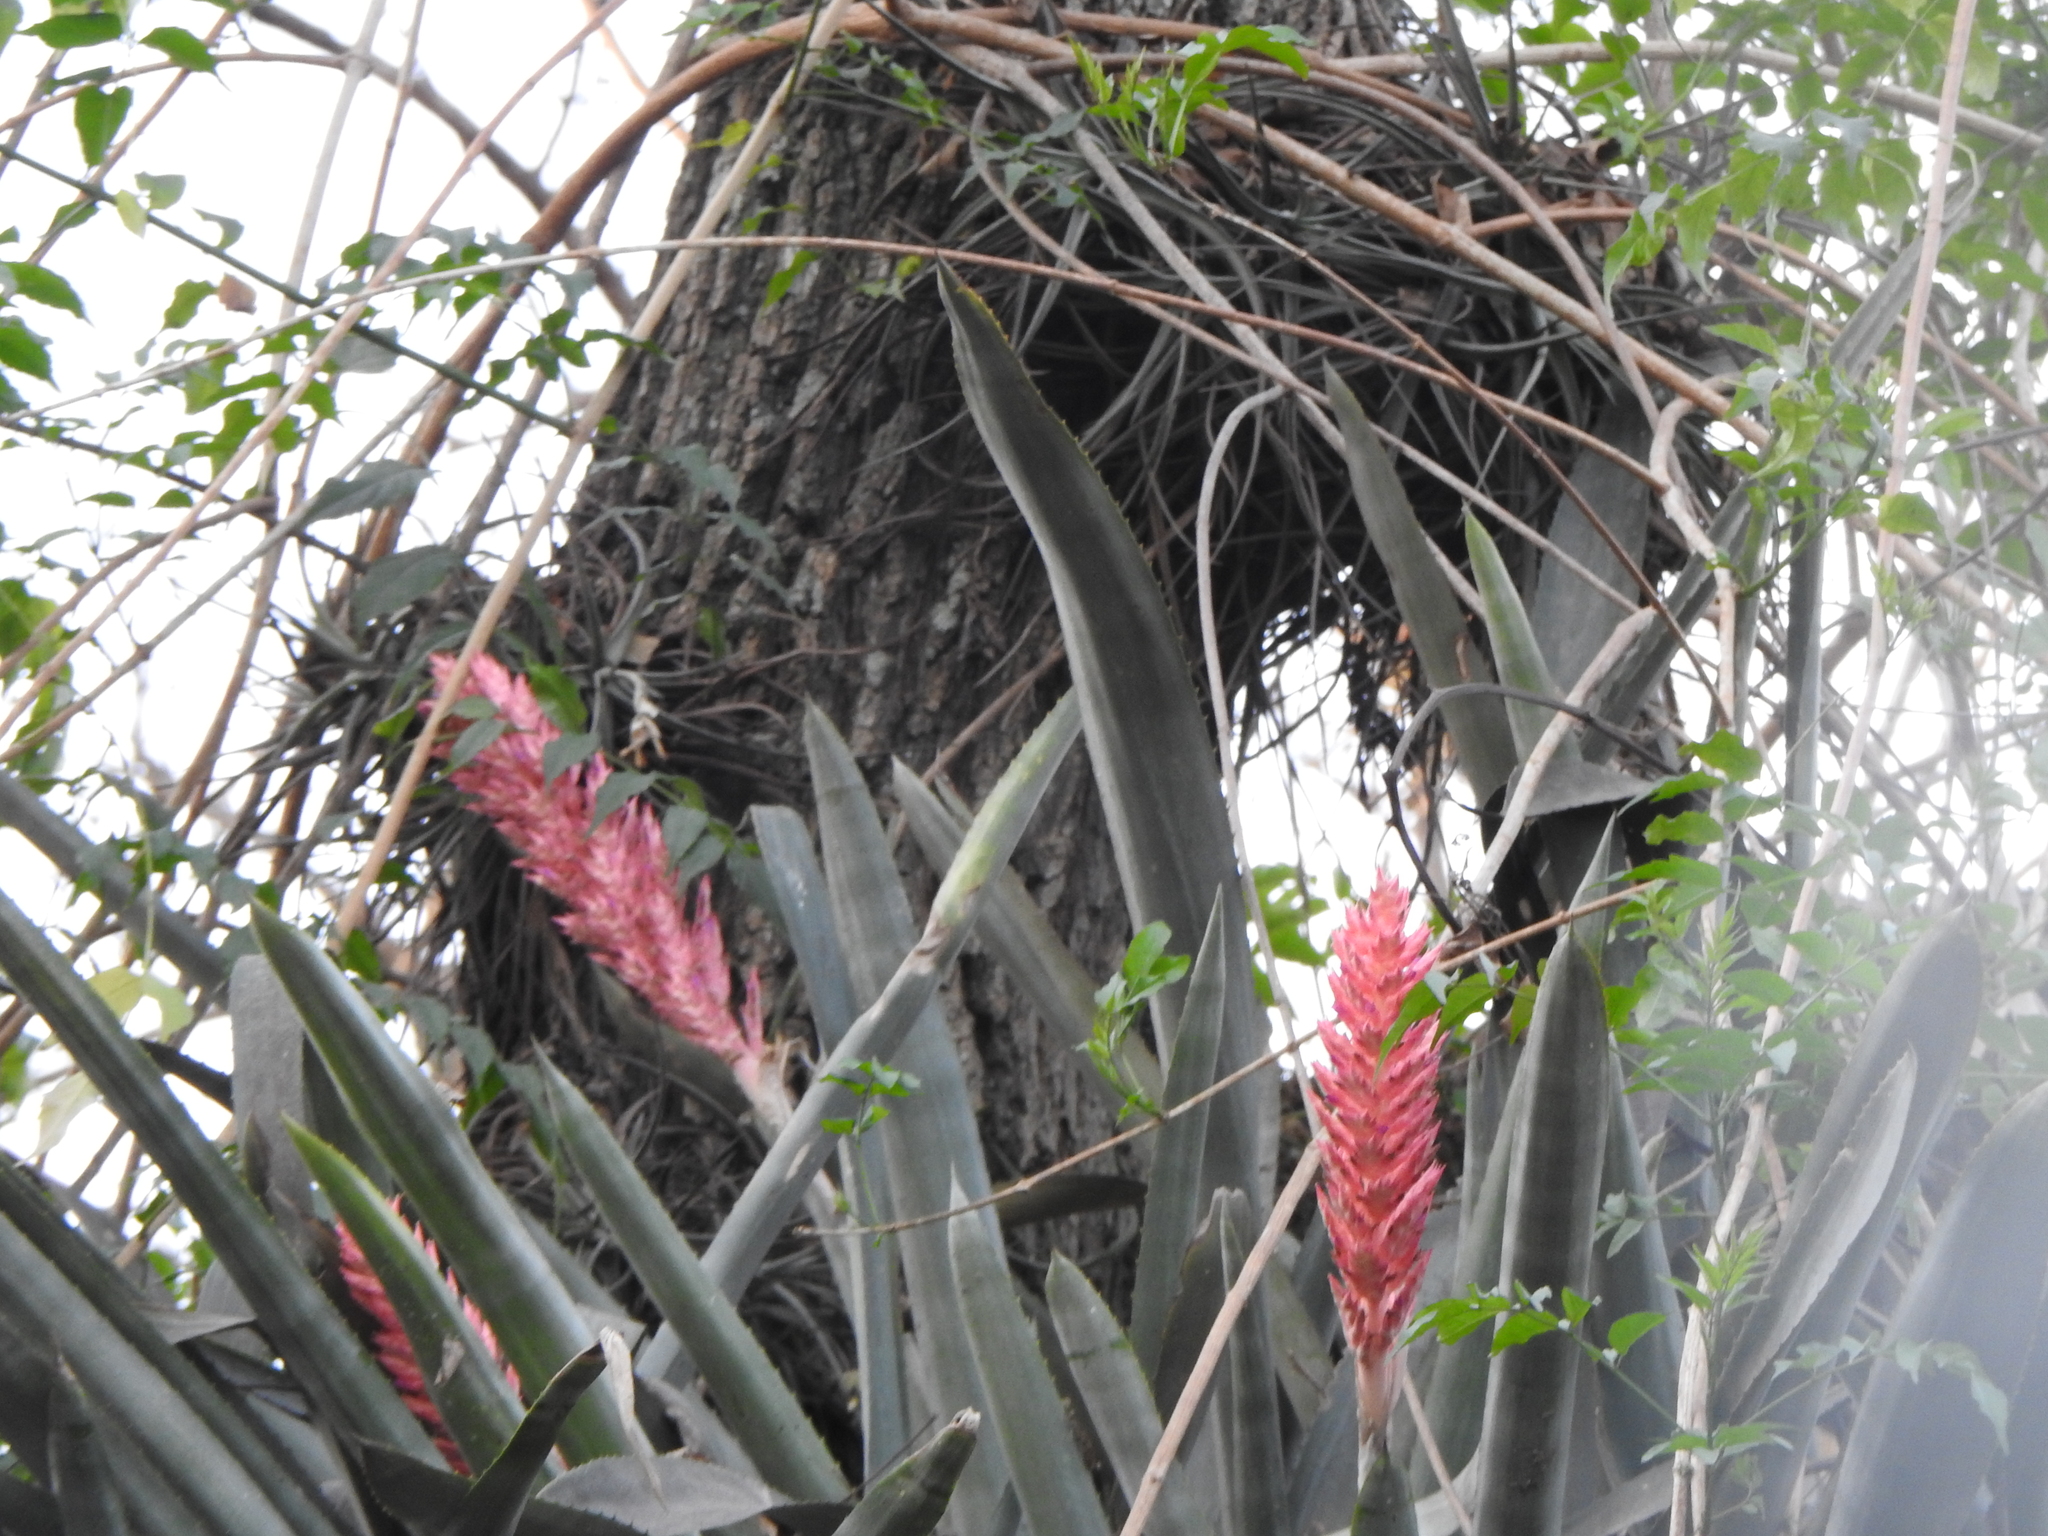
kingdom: Plantae
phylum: Tracheophyta
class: Liliopsida
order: Poales
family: Bromeliaceae
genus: Aechmea
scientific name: Aechmea distichantha
